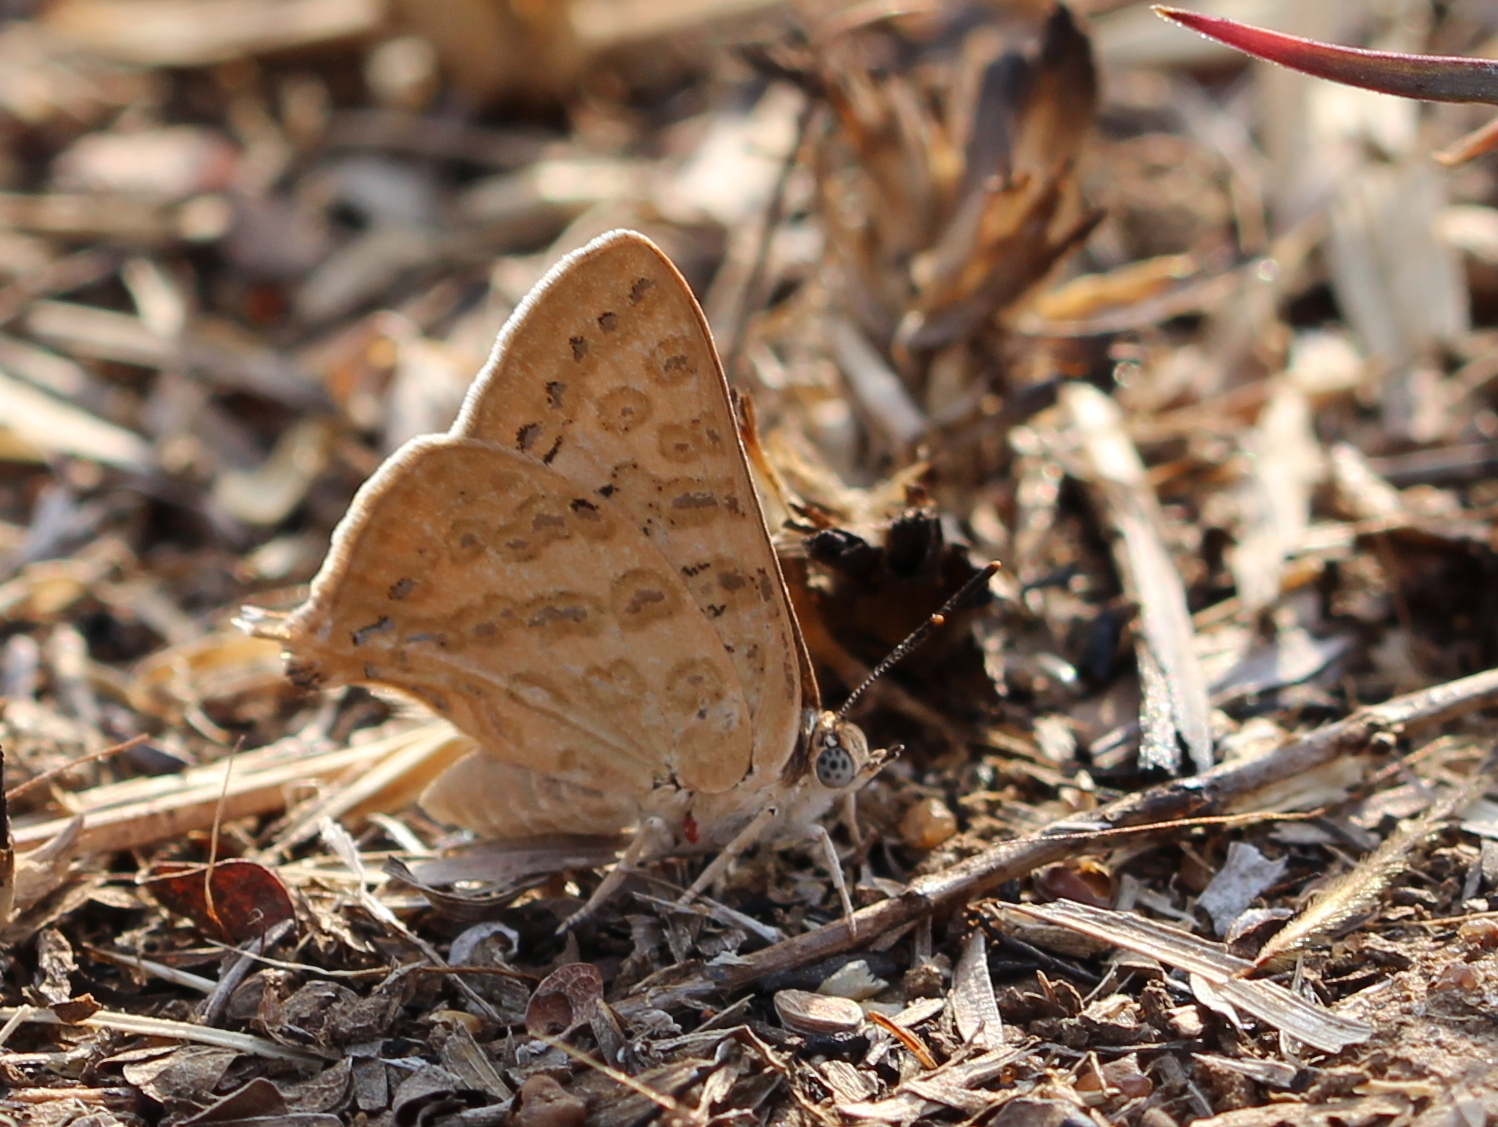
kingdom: Animalia
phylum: Arthropoda
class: Insecta
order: Lepidoptera
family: Lycaenidae
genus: Aphnaeus
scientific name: Aphnaeus lilacinus
